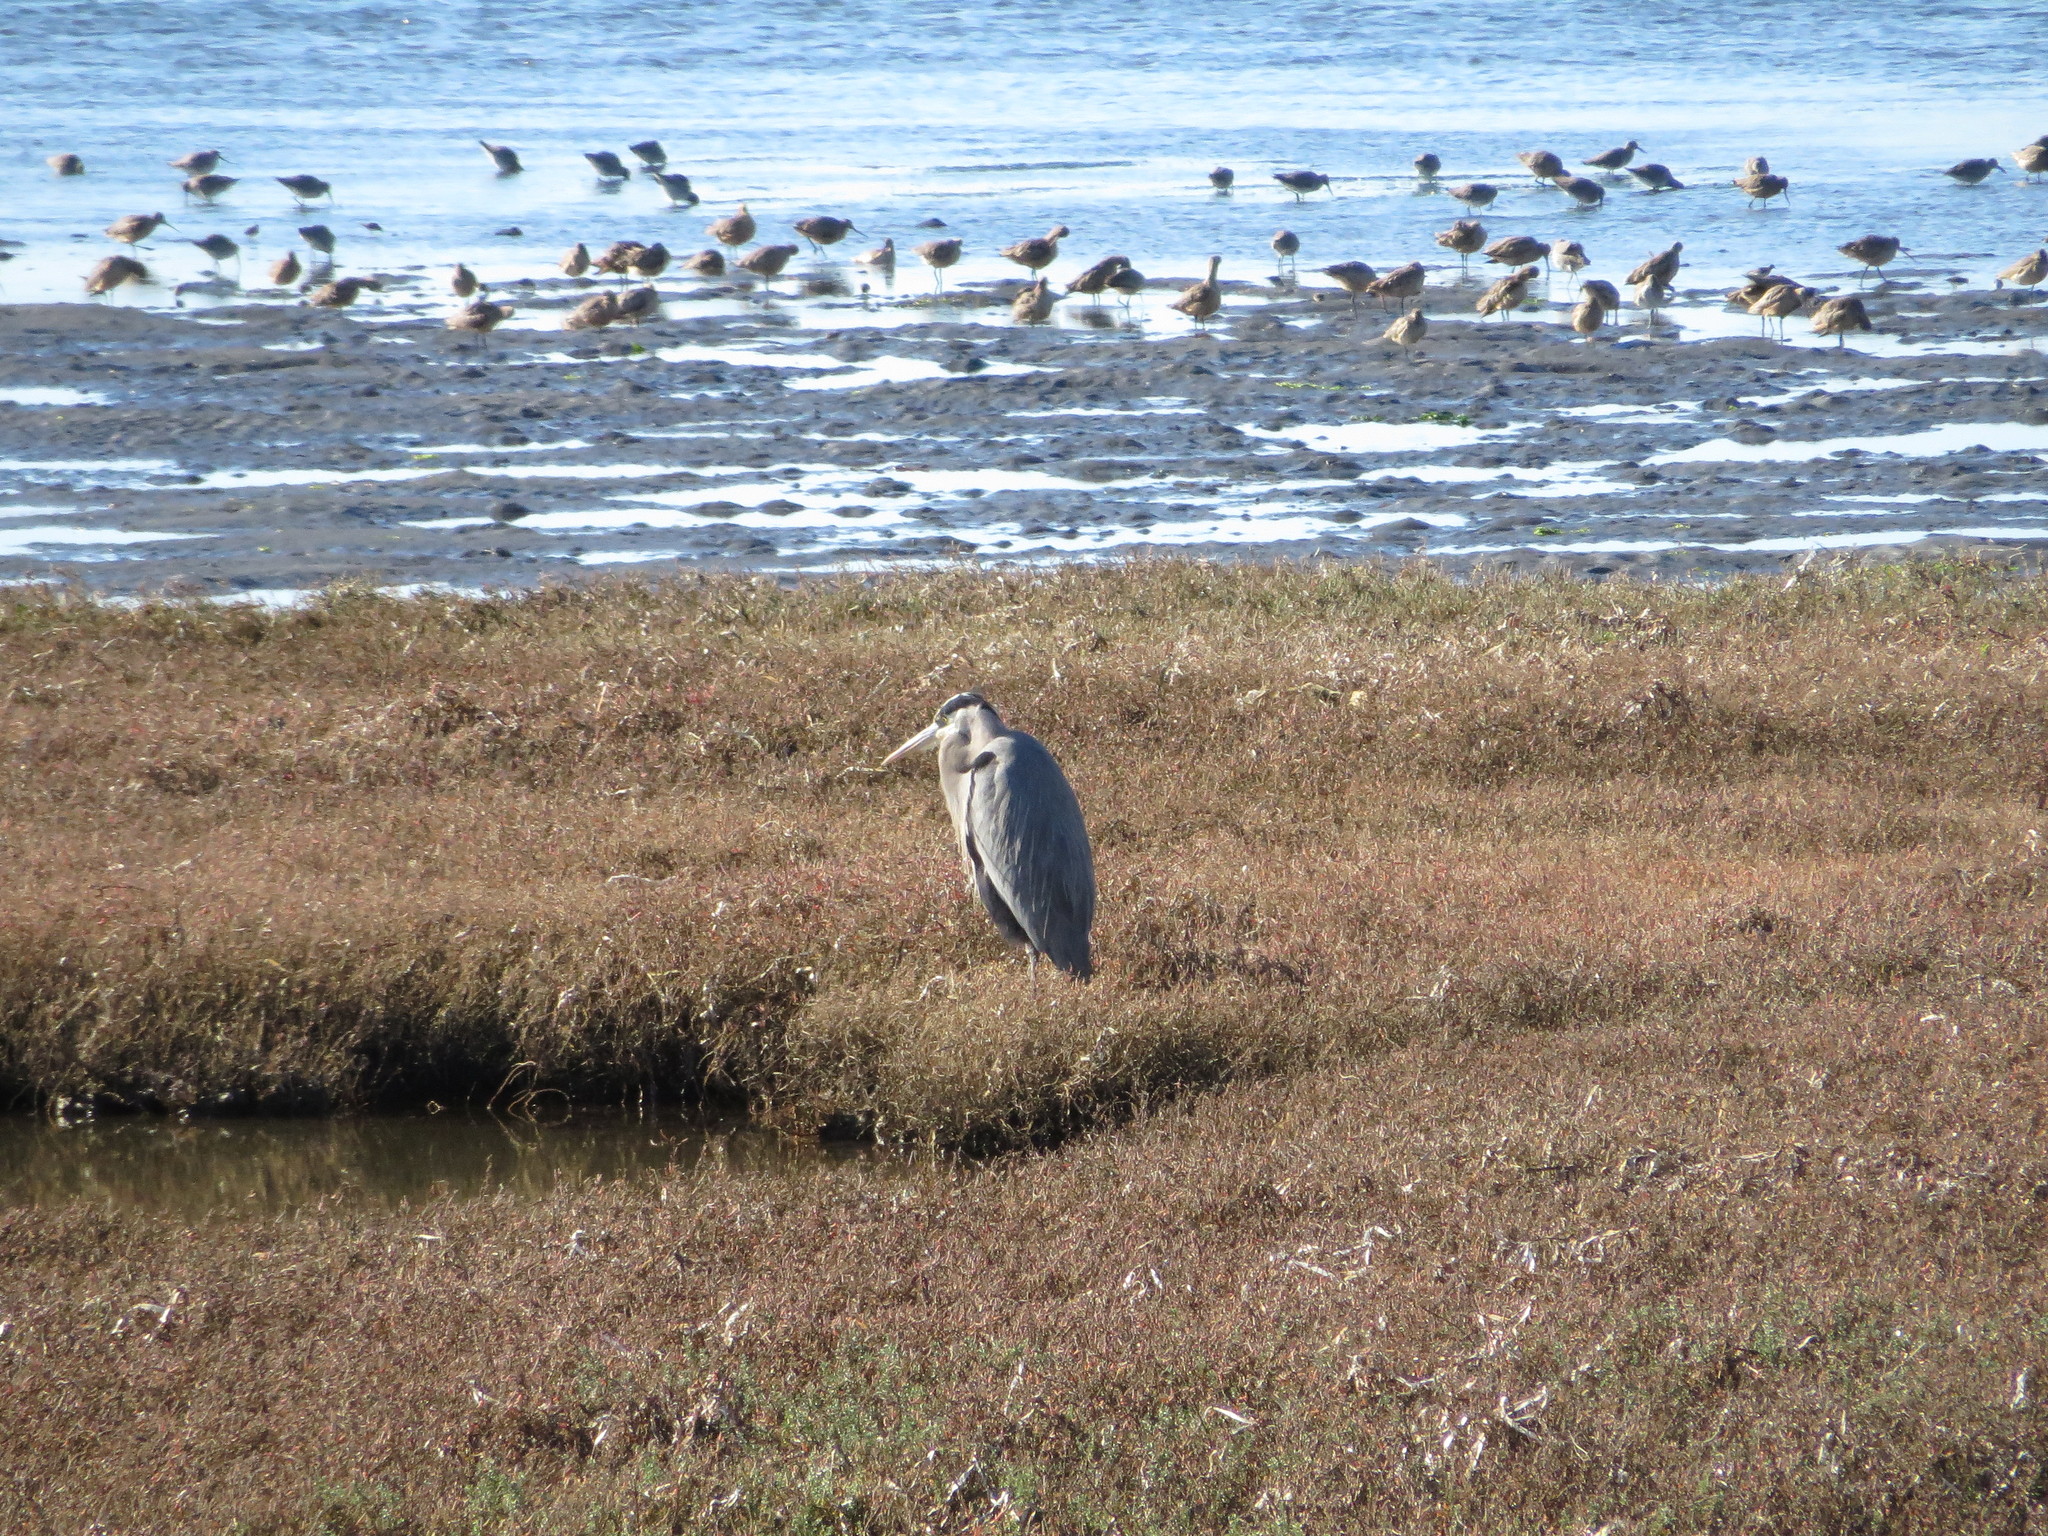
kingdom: Animalia
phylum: Chordata
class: Aves
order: Pelecaniformes
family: Ardeidae
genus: Ardea
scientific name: Ardea herodias
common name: Great blue heron
